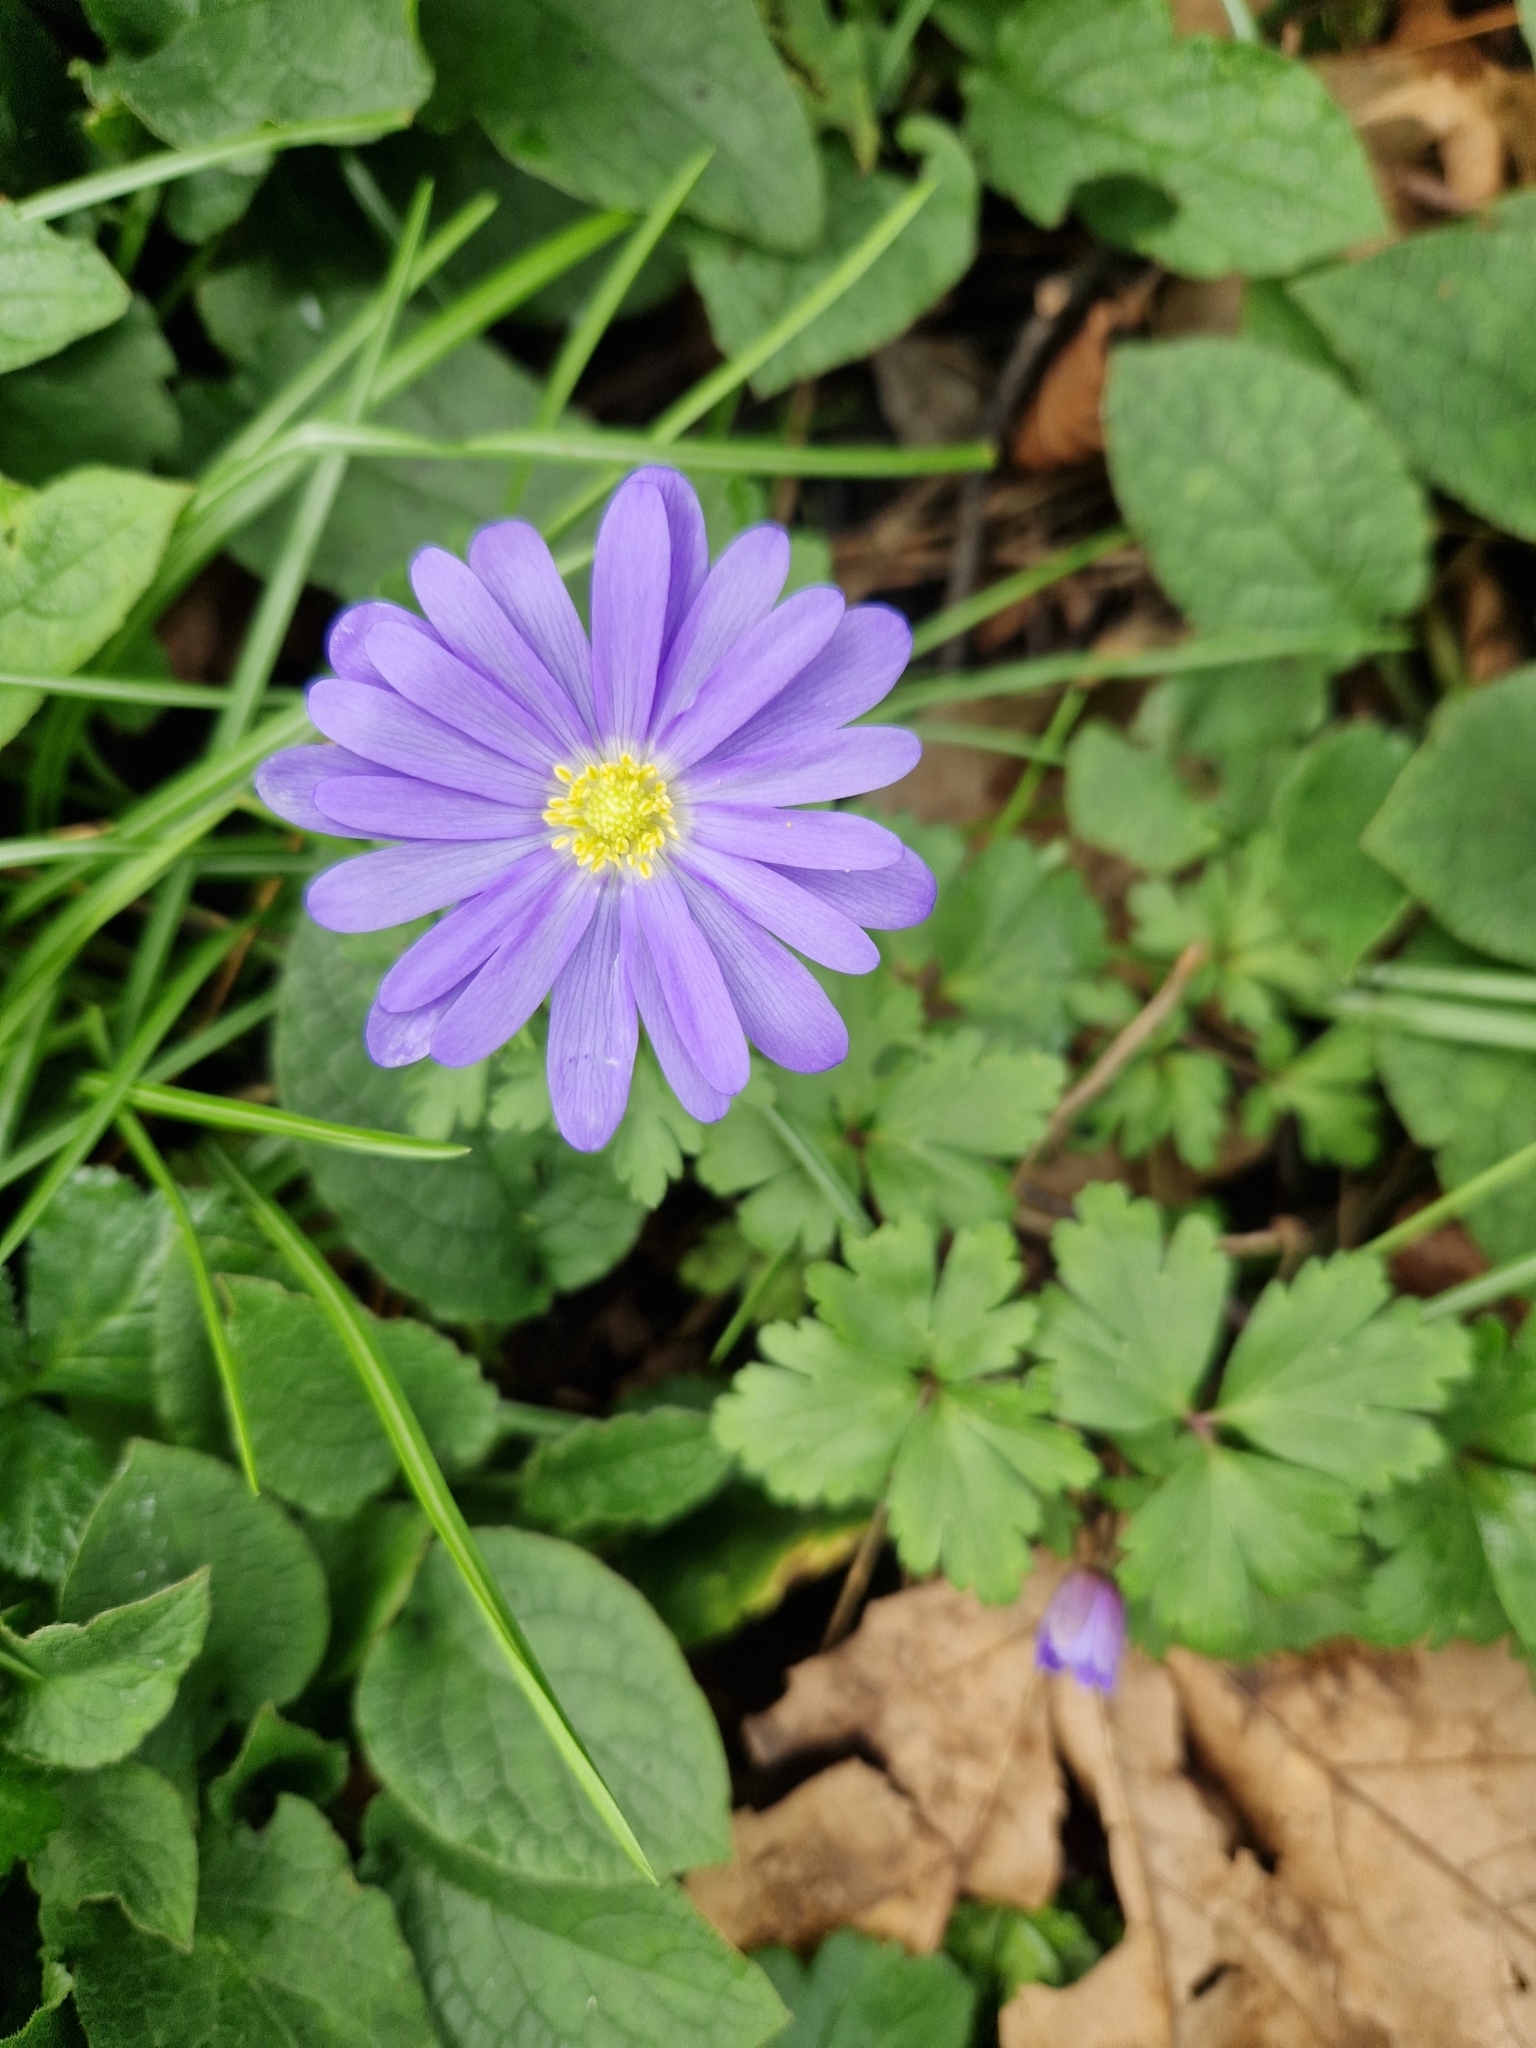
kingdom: Plantae
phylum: Tracheophyta
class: Magnoliopsida
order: Ranunculales
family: Ranunculaceae
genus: Anemone
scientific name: Anemone blanda
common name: Balkan anemone
